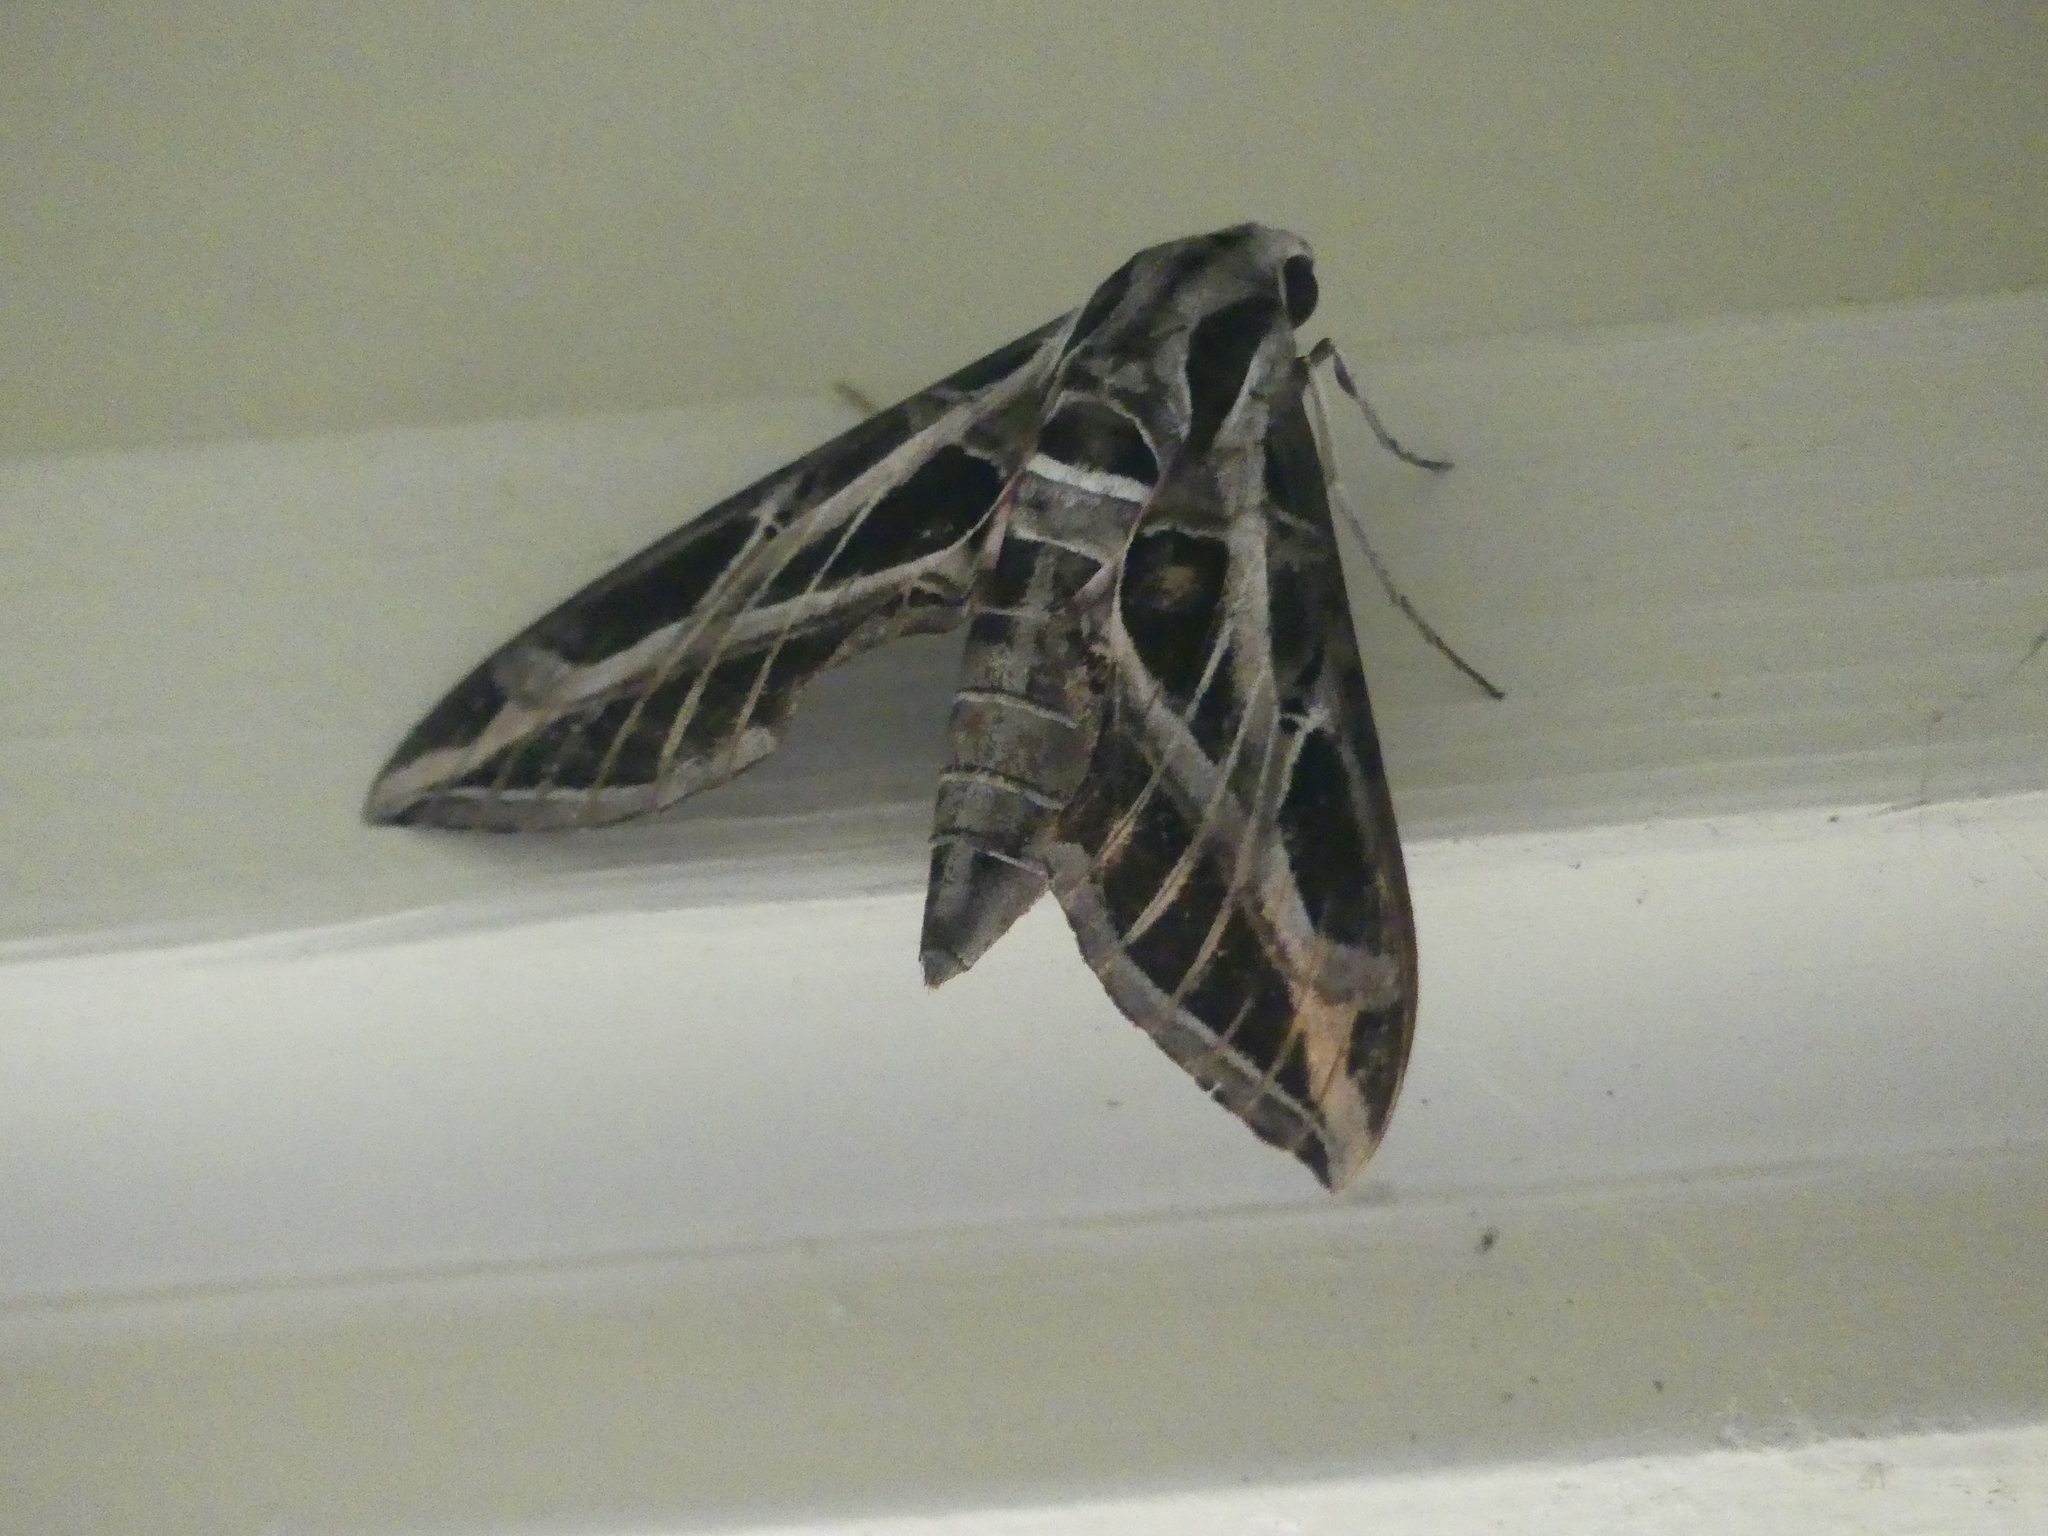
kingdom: Animalia
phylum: Arthropoda
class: Insecta
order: Lepidoptera
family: Sphingidae
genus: Eumorpha
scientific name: Eumorpha vitis
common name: Vine sphinx
